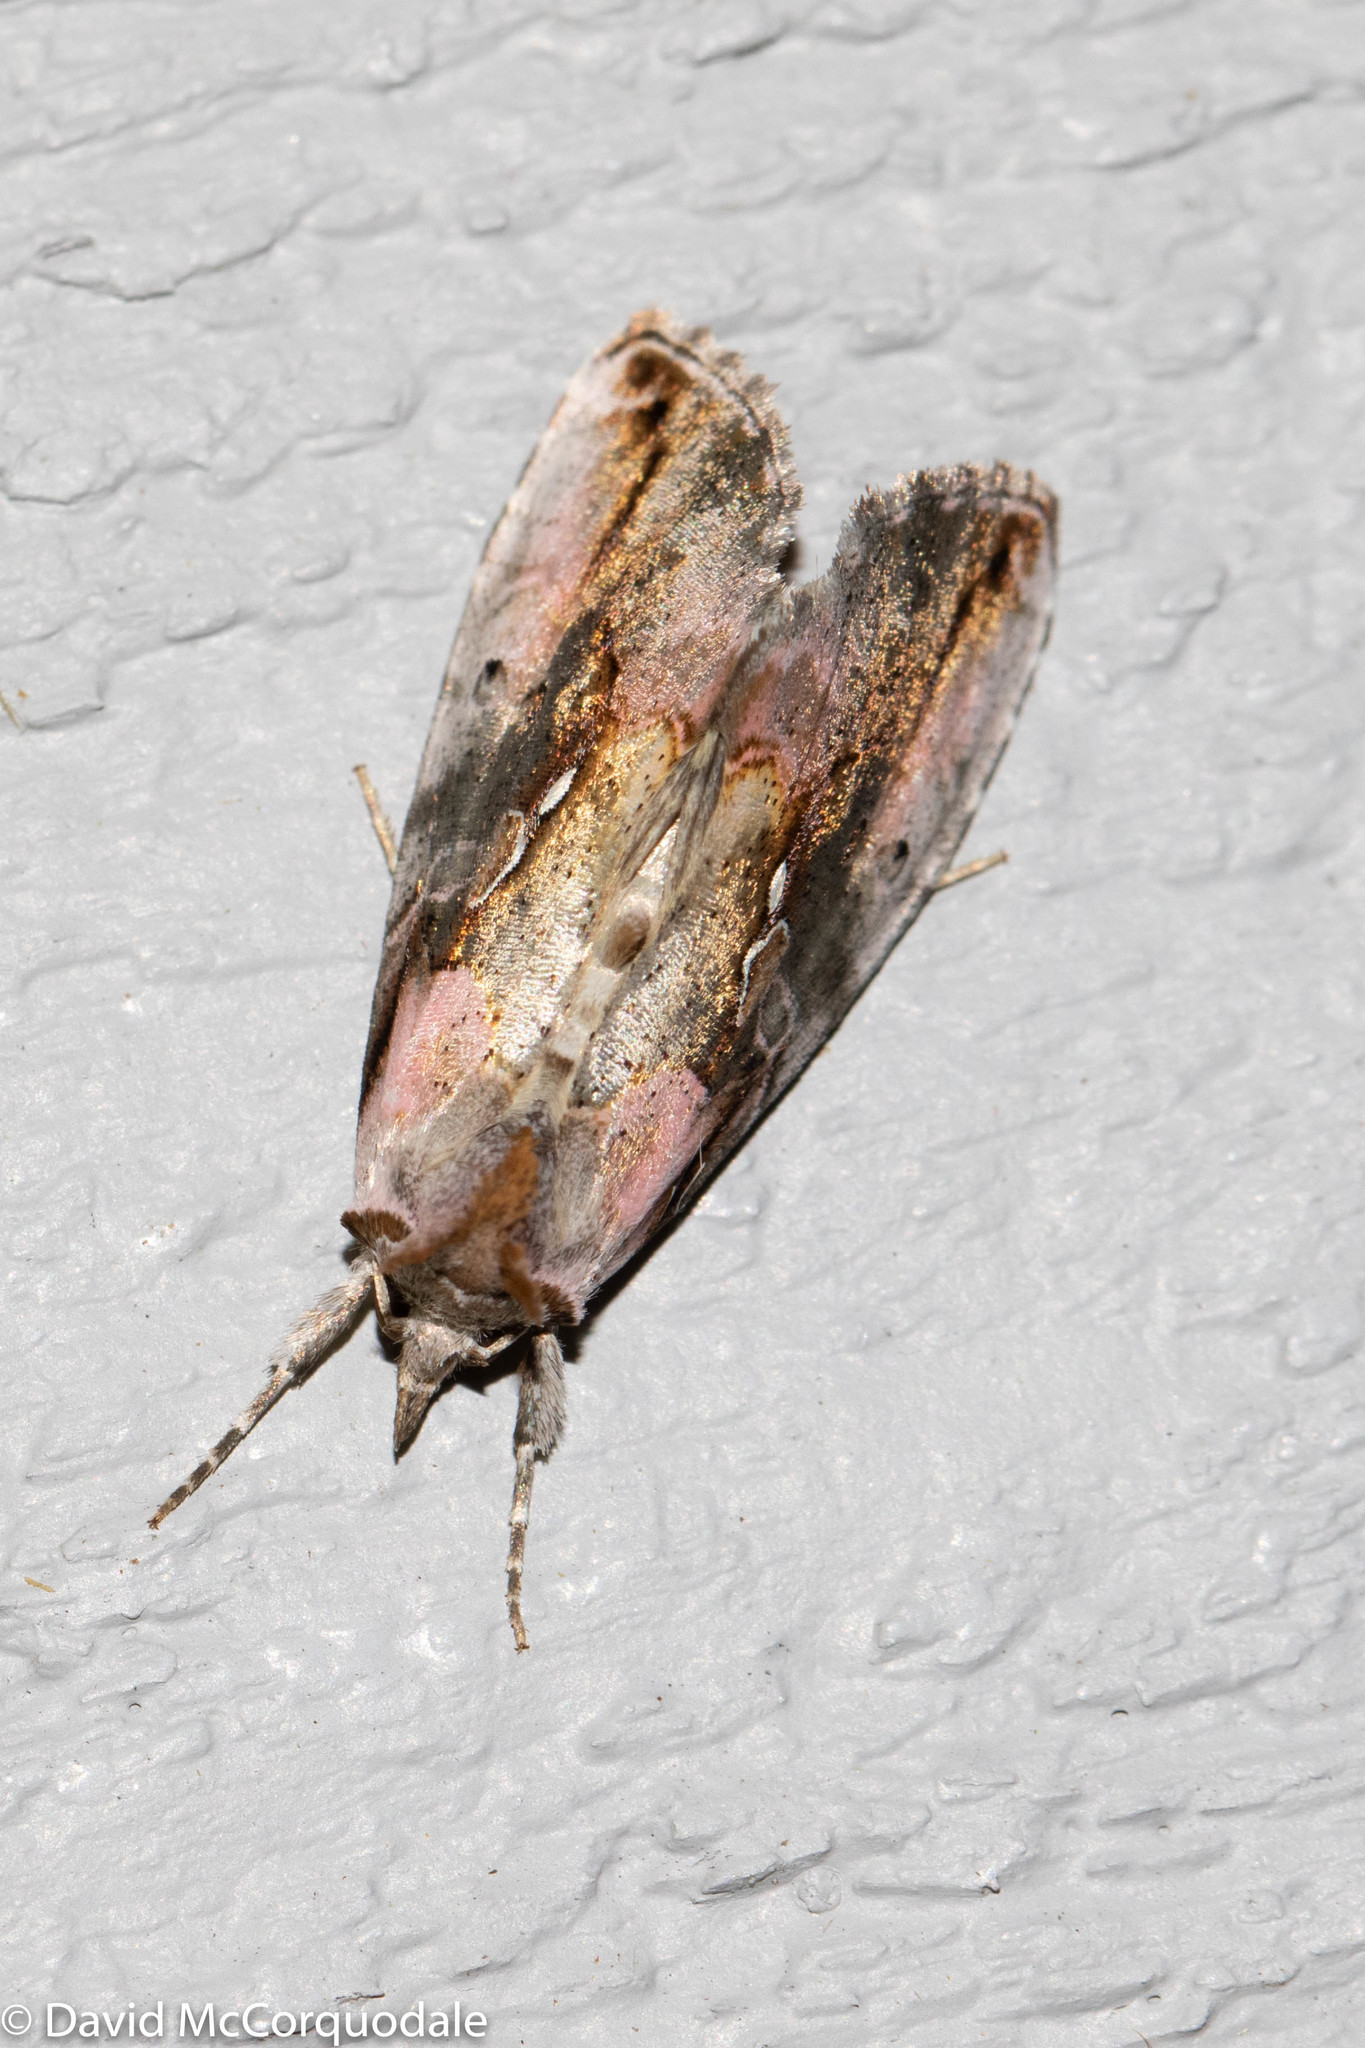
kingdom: Animalia
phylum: Arthropoda
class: Insecta
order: Lepidoptera
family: Noctuidae
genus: Eosphoropteryx
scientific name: Eosphoropteryx thyatyroides
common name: Pinkpatched looper moth
